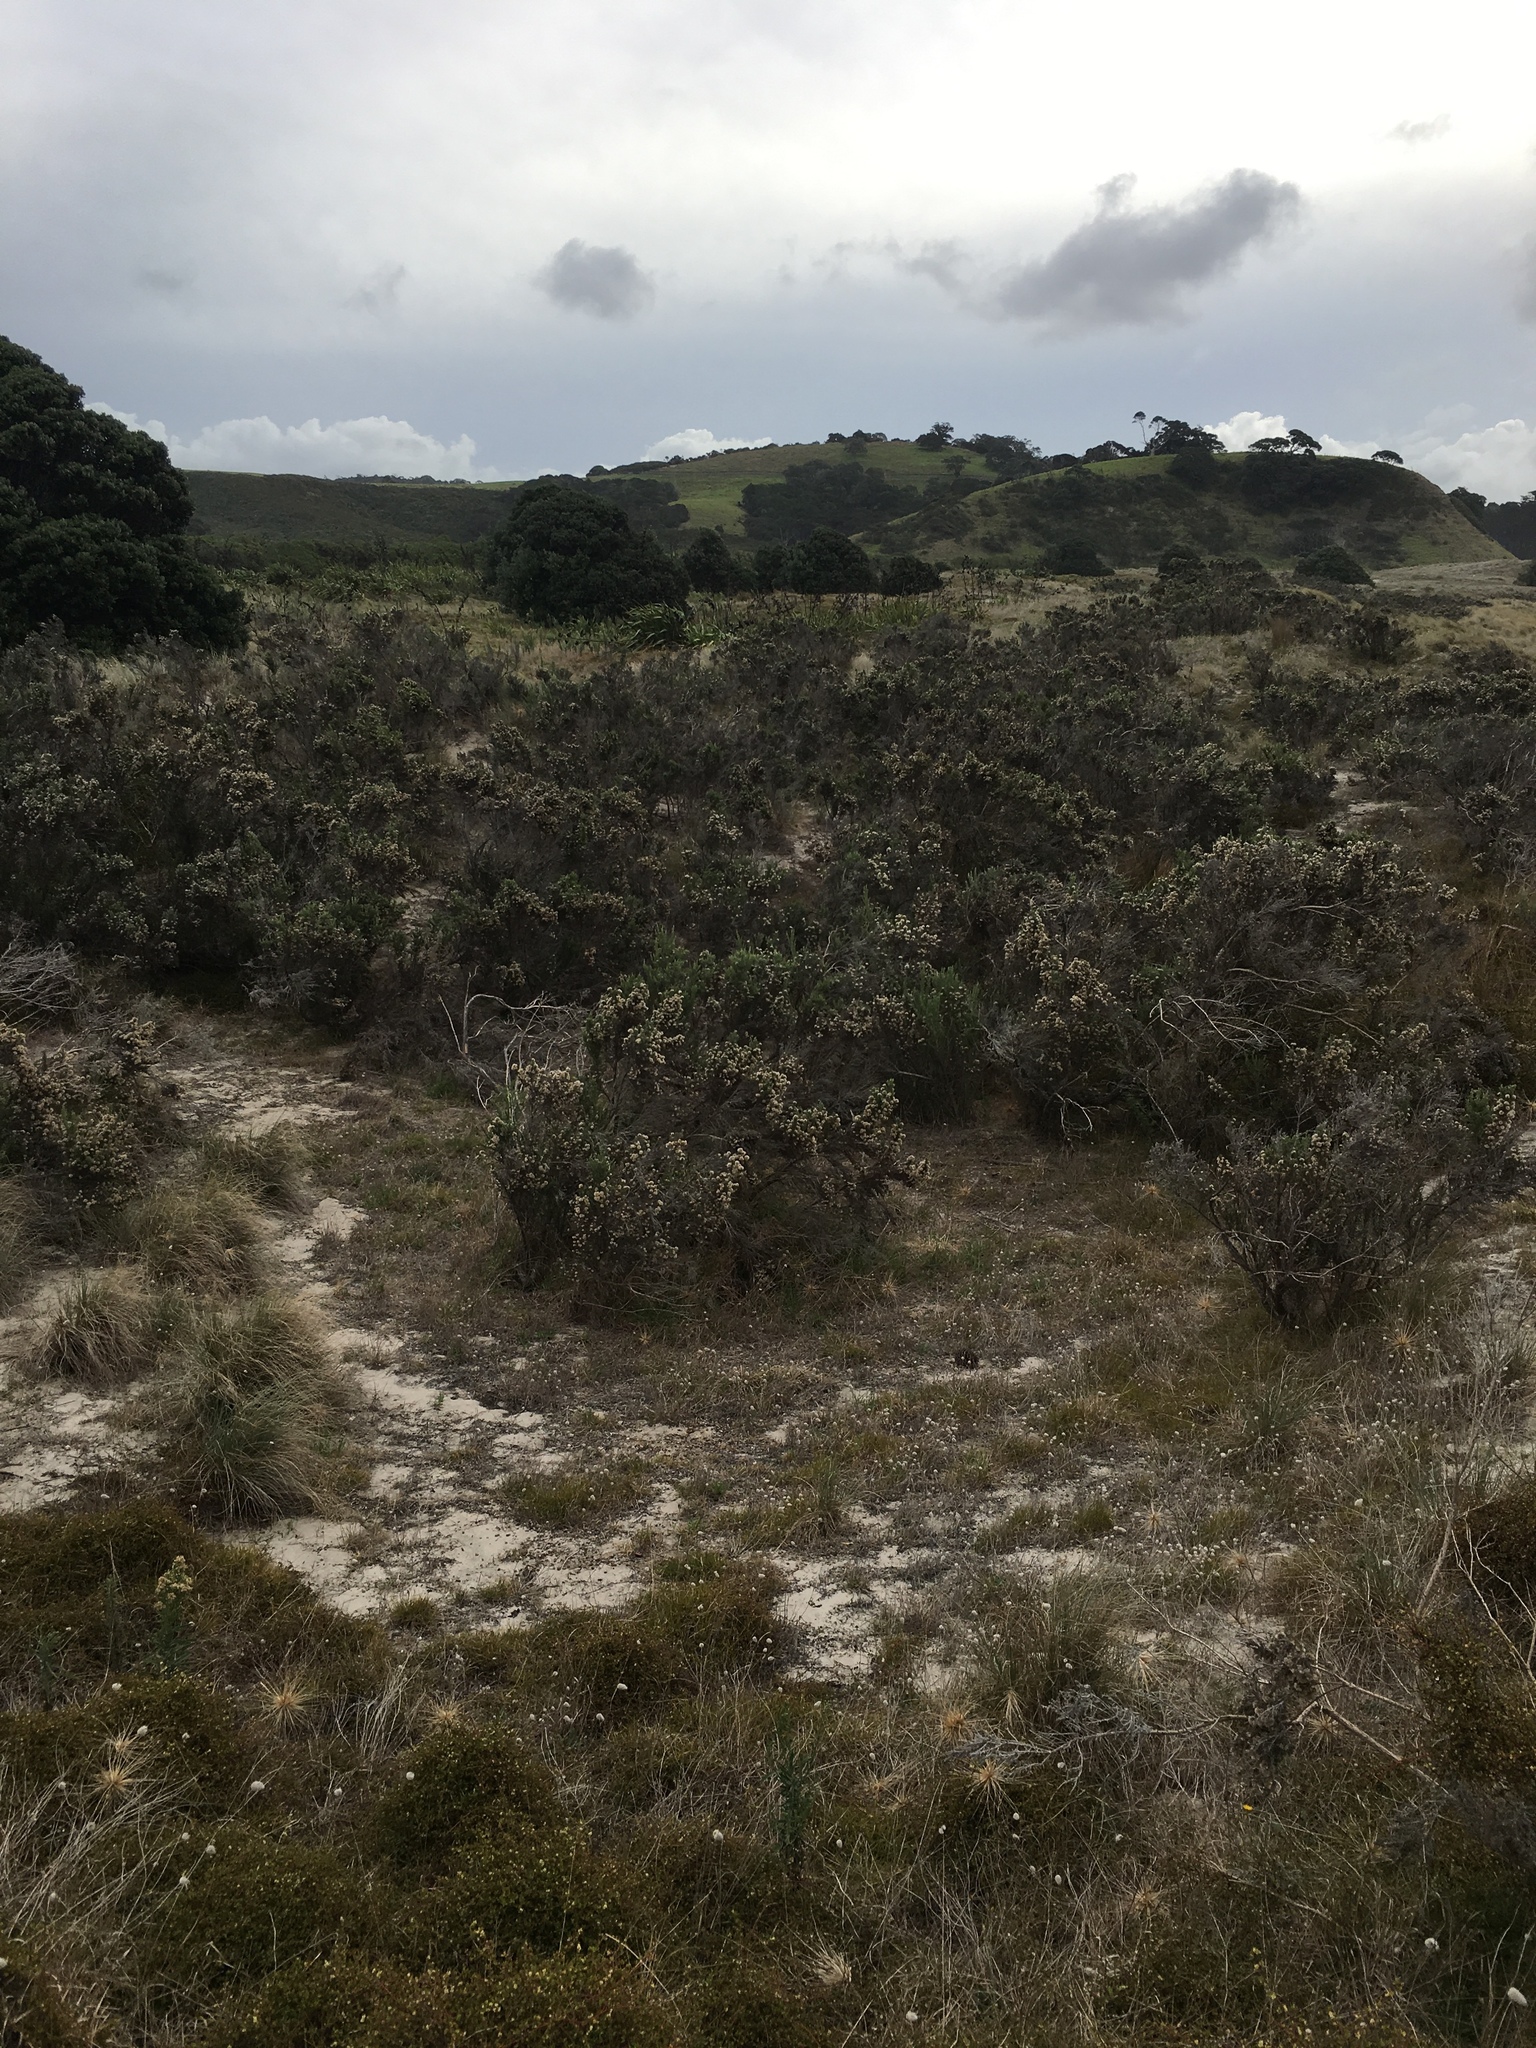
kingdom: Plantae
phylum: Tracheophyta
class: Magnoliopsida
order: Asterales
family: Asteraceae
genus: Ozothamnus
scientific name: Ozothamnus leptophyllus
